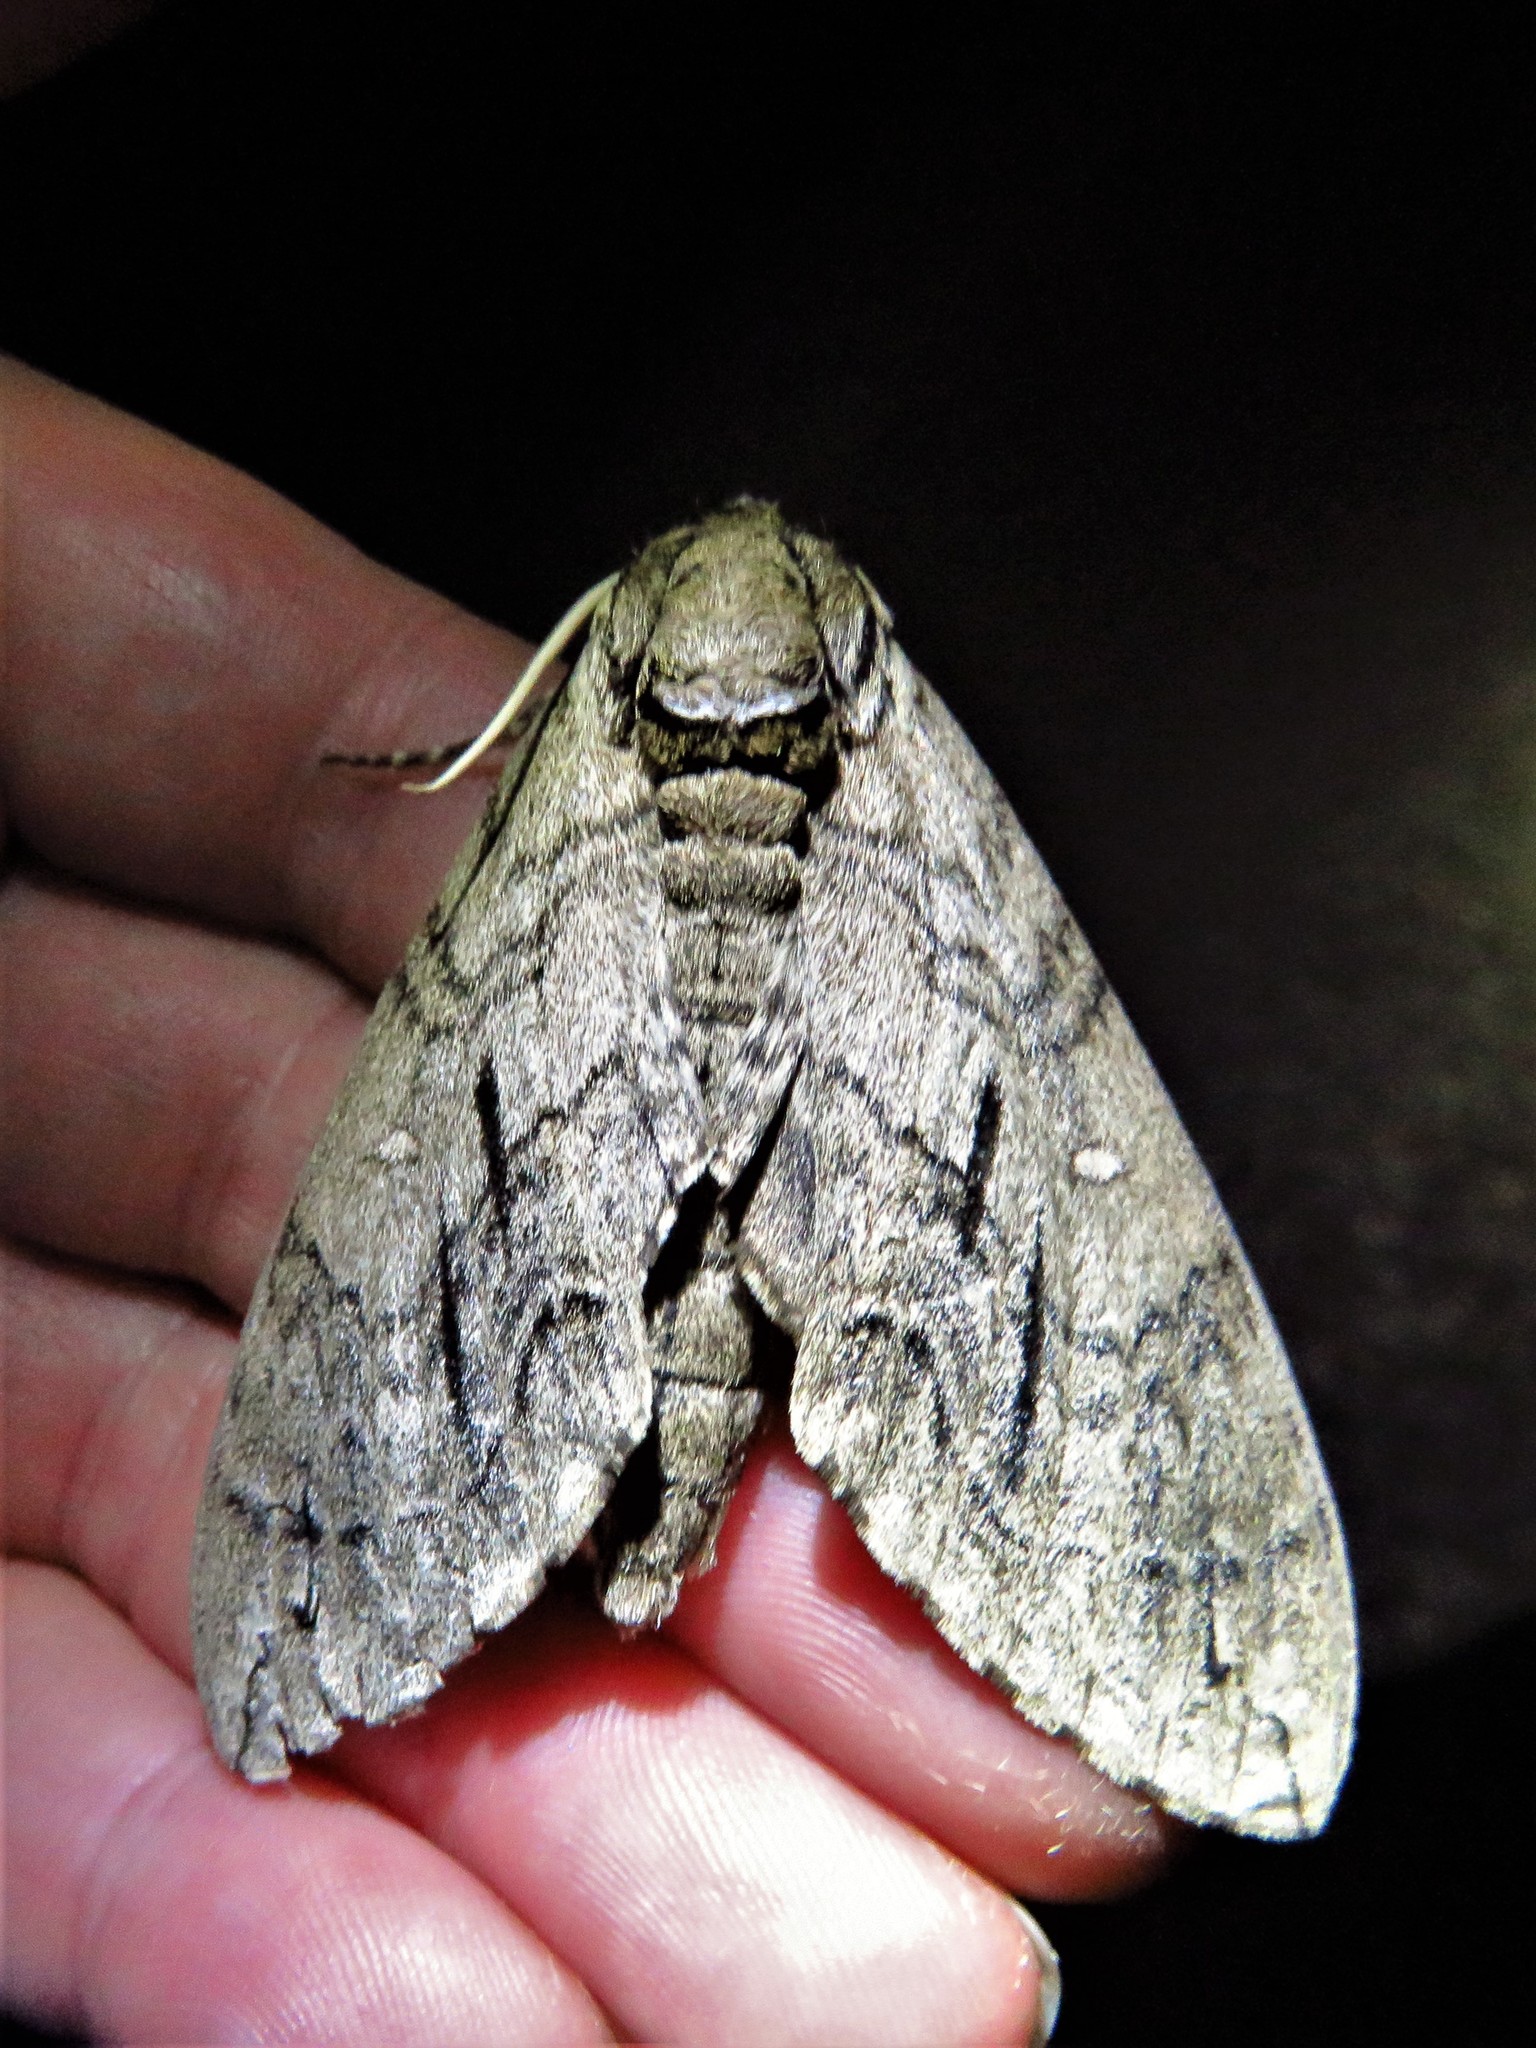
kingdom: Animalia
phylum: Arthropoda
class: Insecta
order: Lepidoptera
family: Sphingidae
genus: Ceratomia
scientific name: Ceratomia undulosa
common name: Waved sphinx
